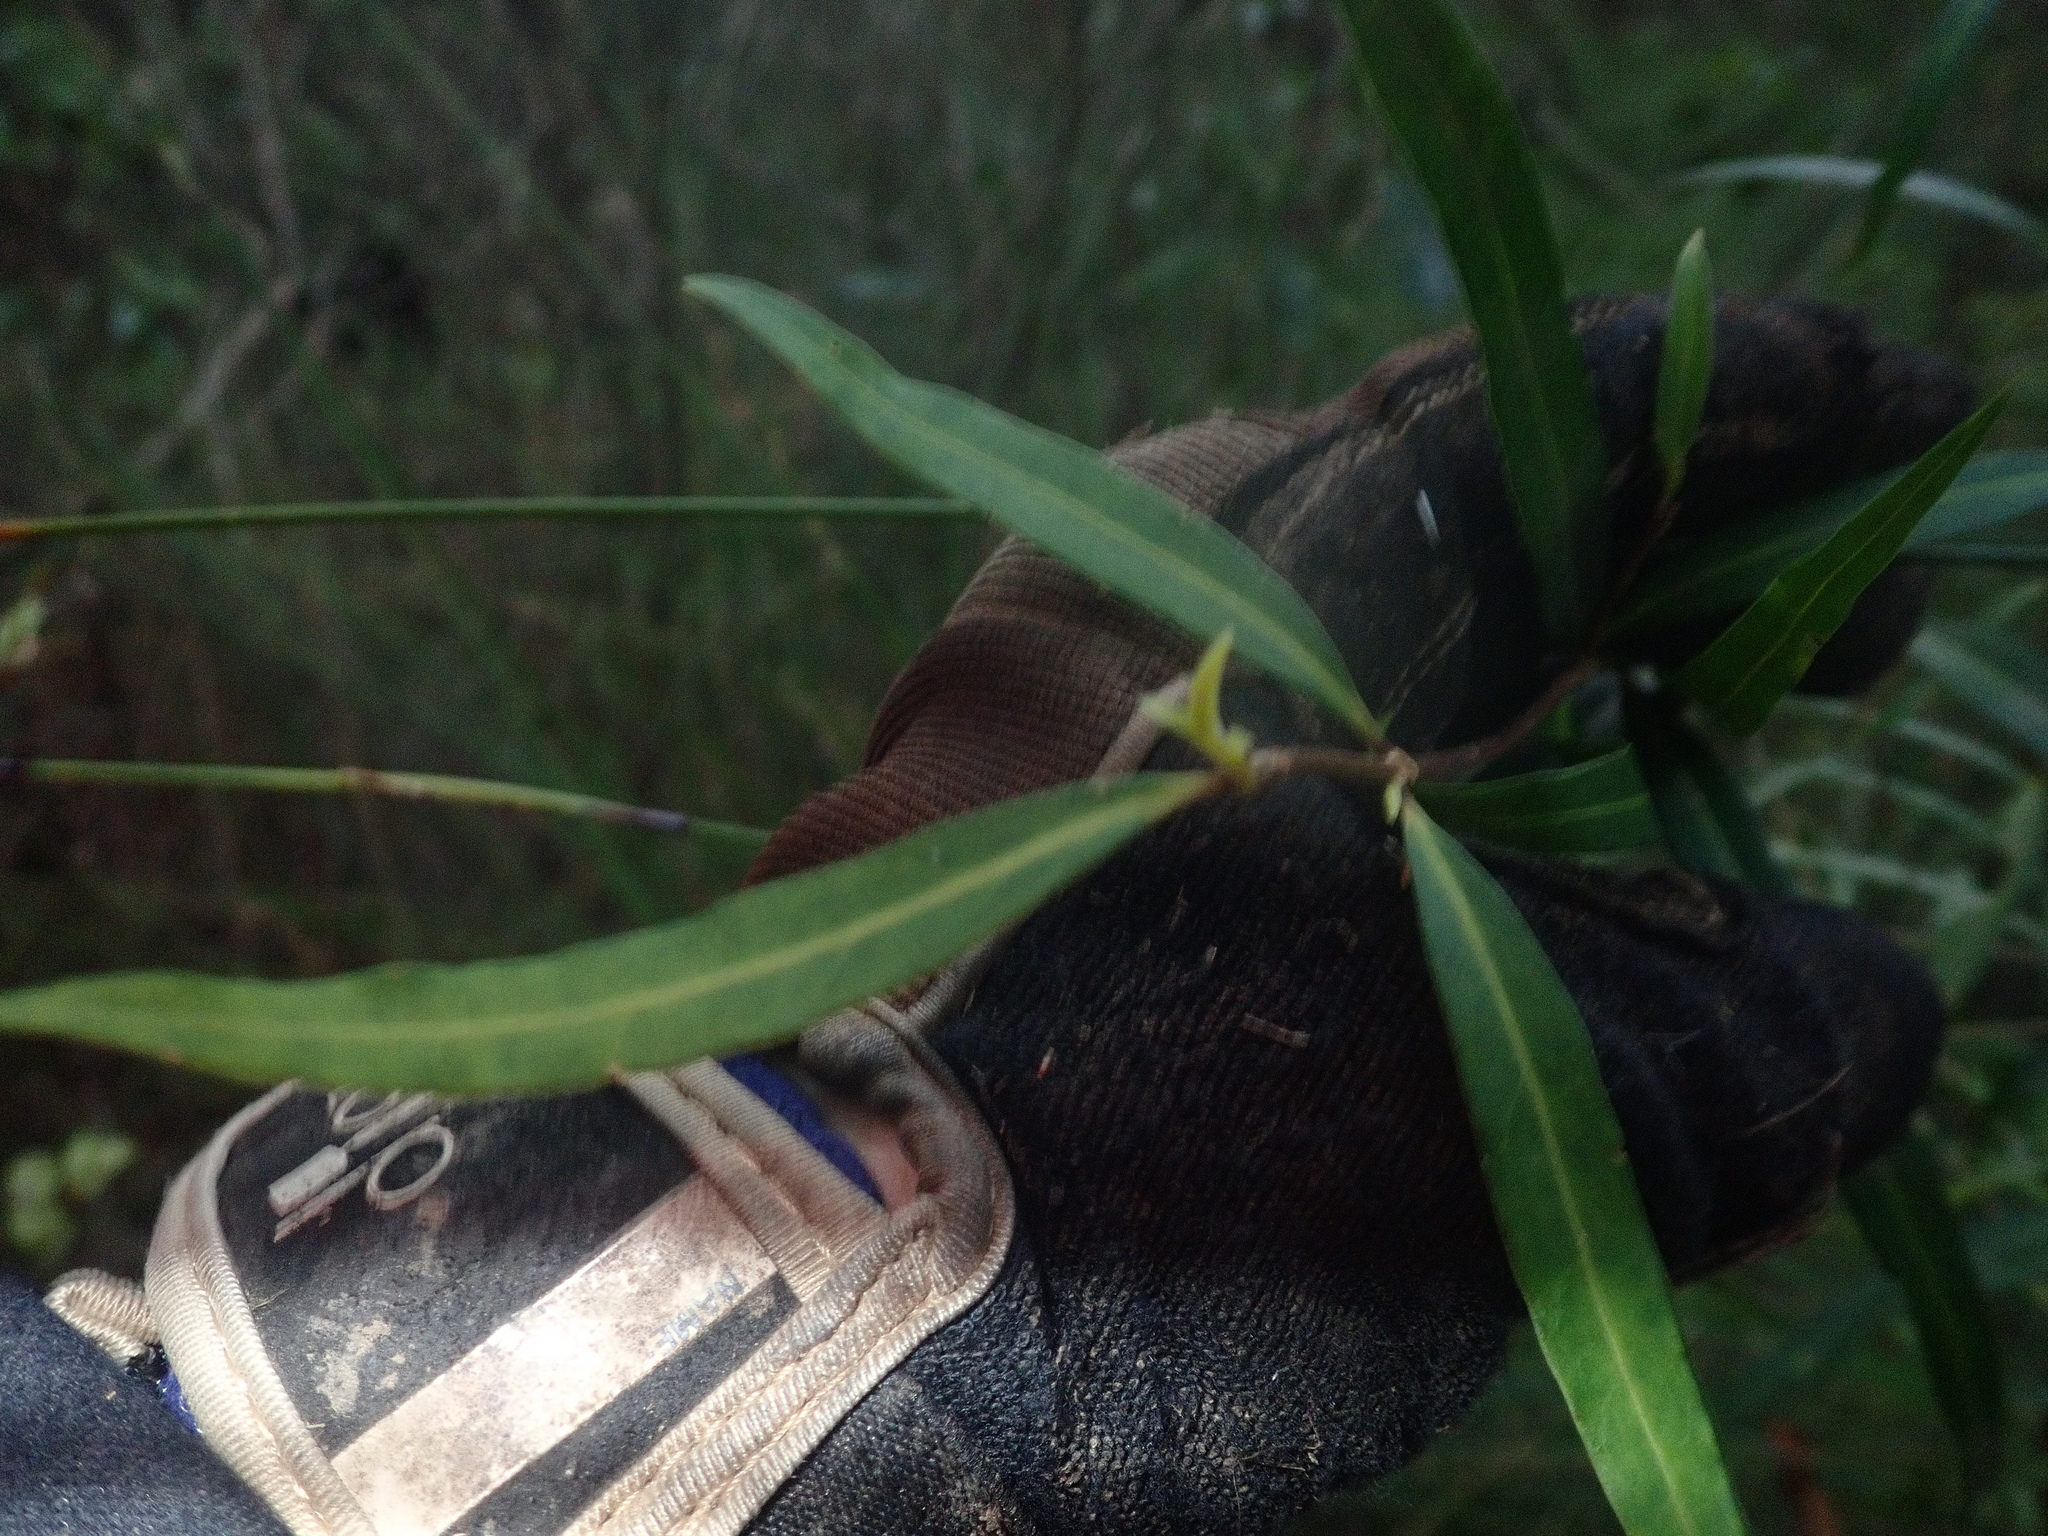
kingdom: Plantae
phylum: Tracheophyta
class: Magnoliopsida
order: Lamiales
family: Oleaceae
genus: Nestegis
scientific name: Nestegis lanceolata
